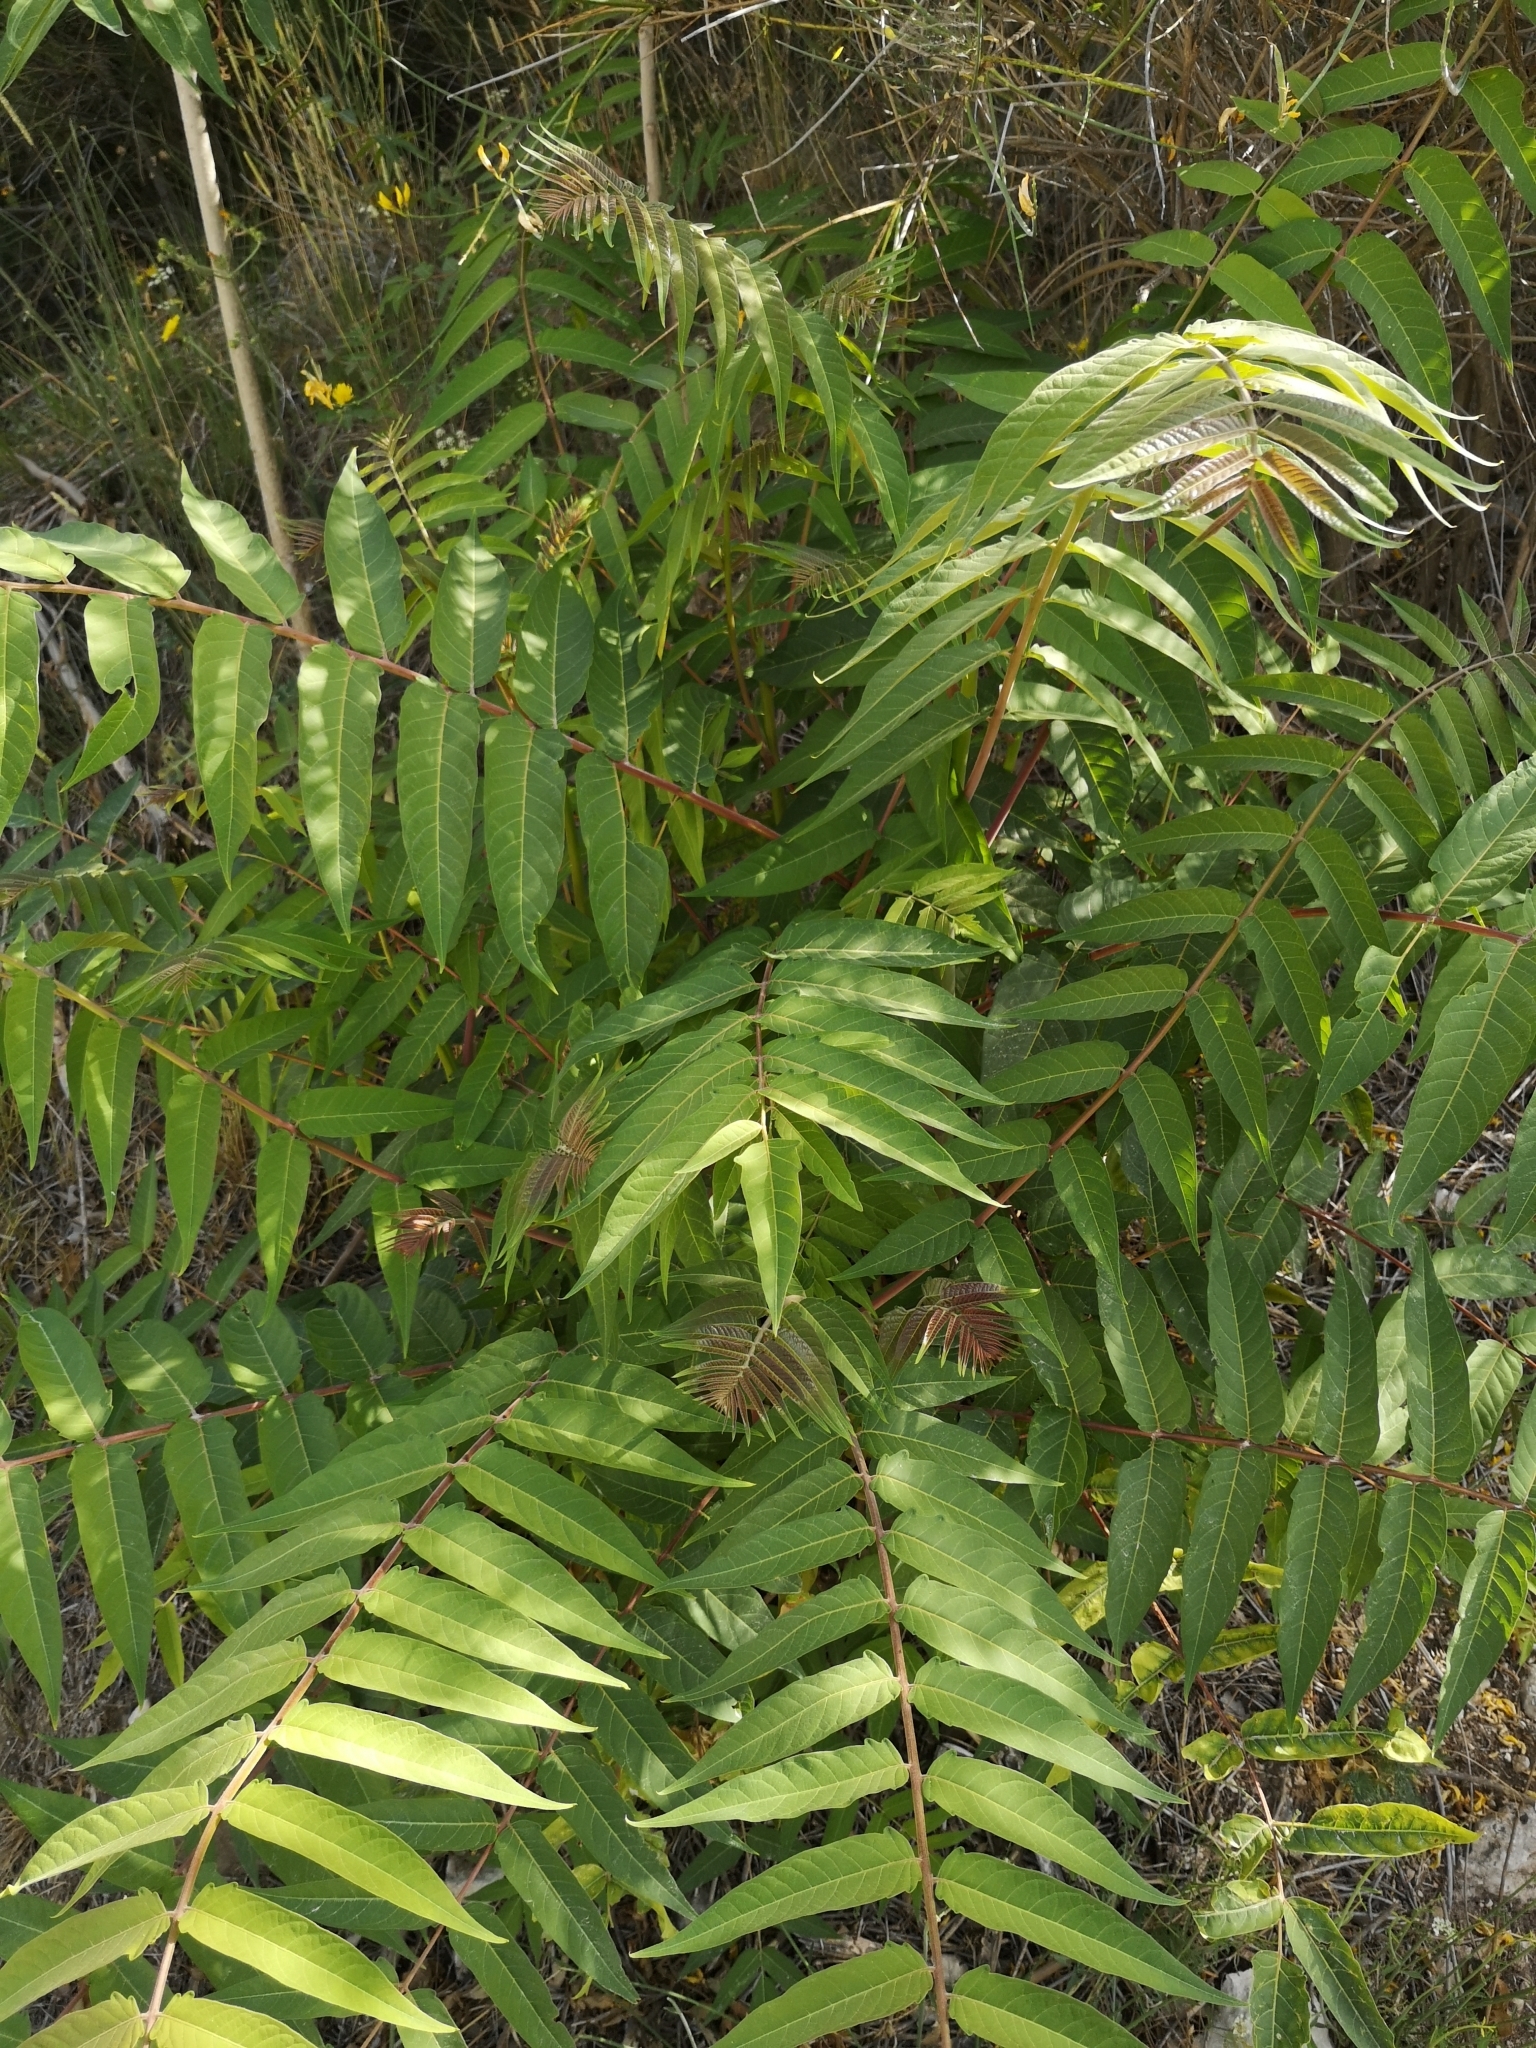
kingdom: Plantae
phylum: Tracheophyta
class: Magnoliopsida
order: Sapindales
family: Simaroubaceae
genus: Ailanthus
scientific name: Ailanthus altissima
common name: Tree-of-heaven
